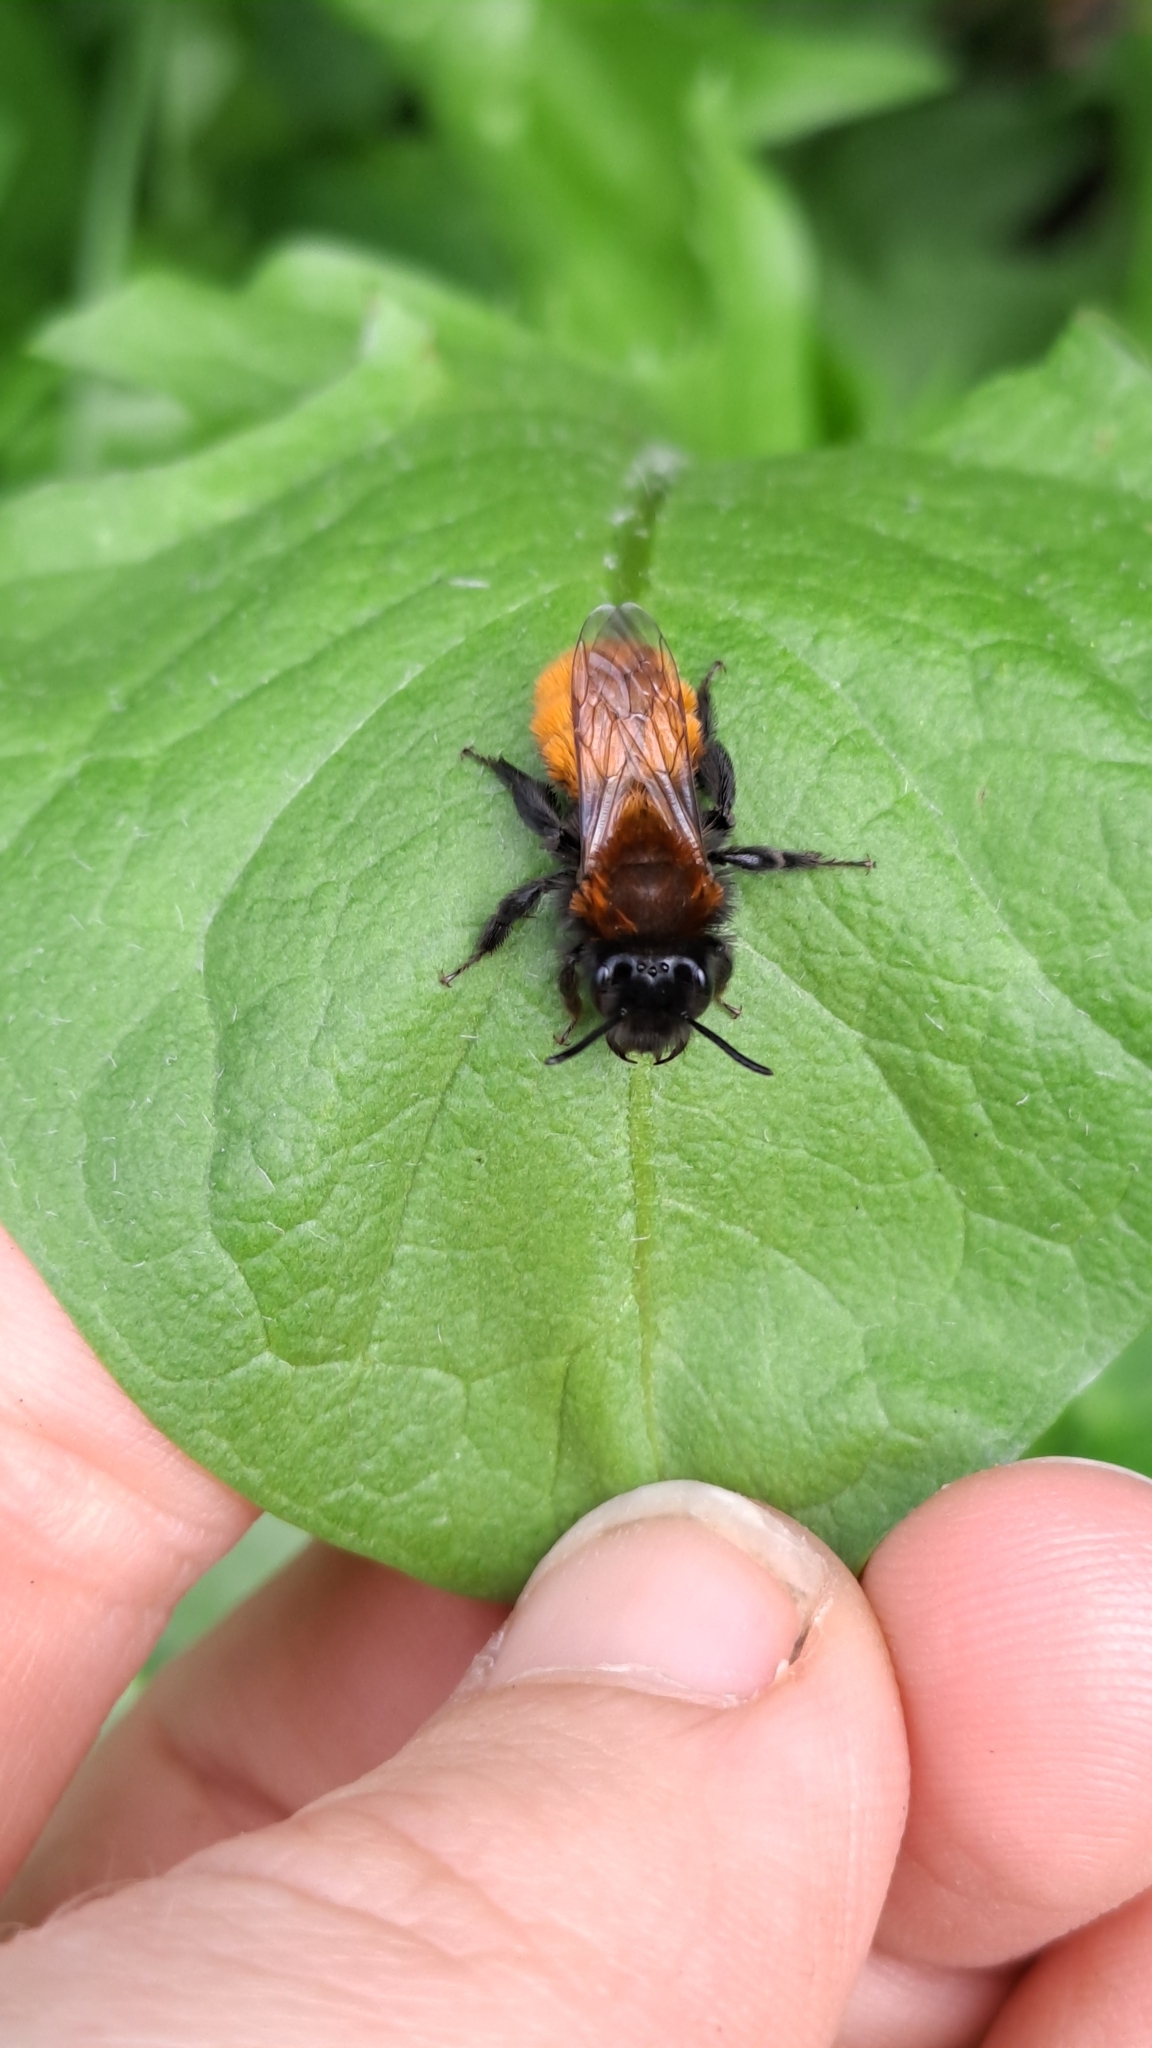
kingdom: Animalia
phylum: Arthropoda
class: Insecta
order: Hymenoptera
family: Andrenidae
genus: Andrena
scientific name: Andrena fulva
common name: Tawny mining bee
